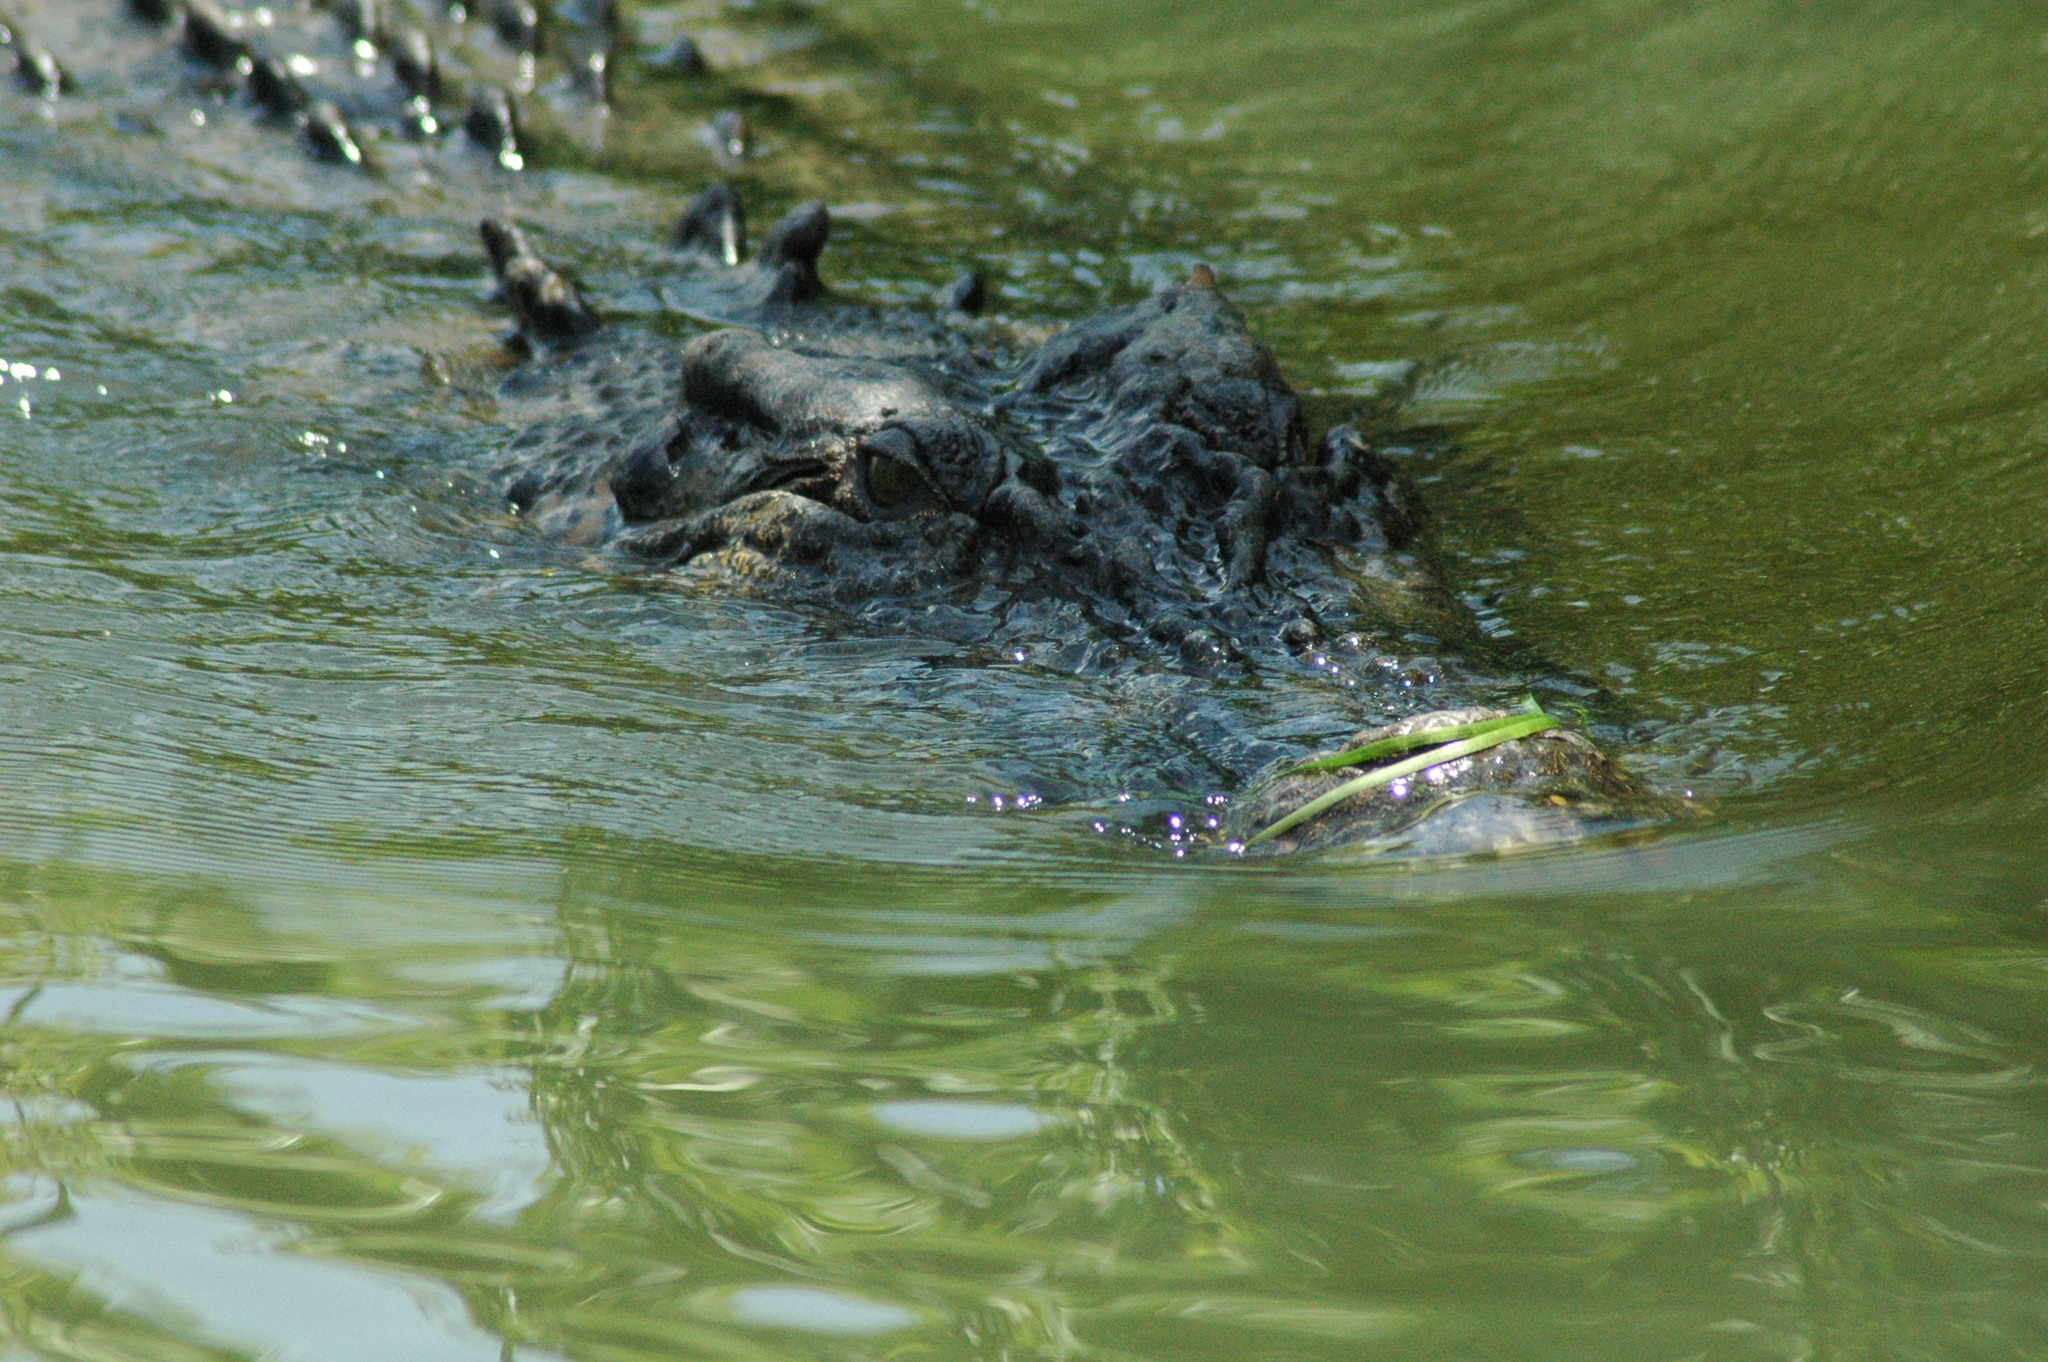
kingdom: Animalia
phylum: Chordata
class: Crocodylia
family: Crocodylidae
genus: Crocodylus
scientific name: Crocodylus porosus
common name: Saltwater crocodile
